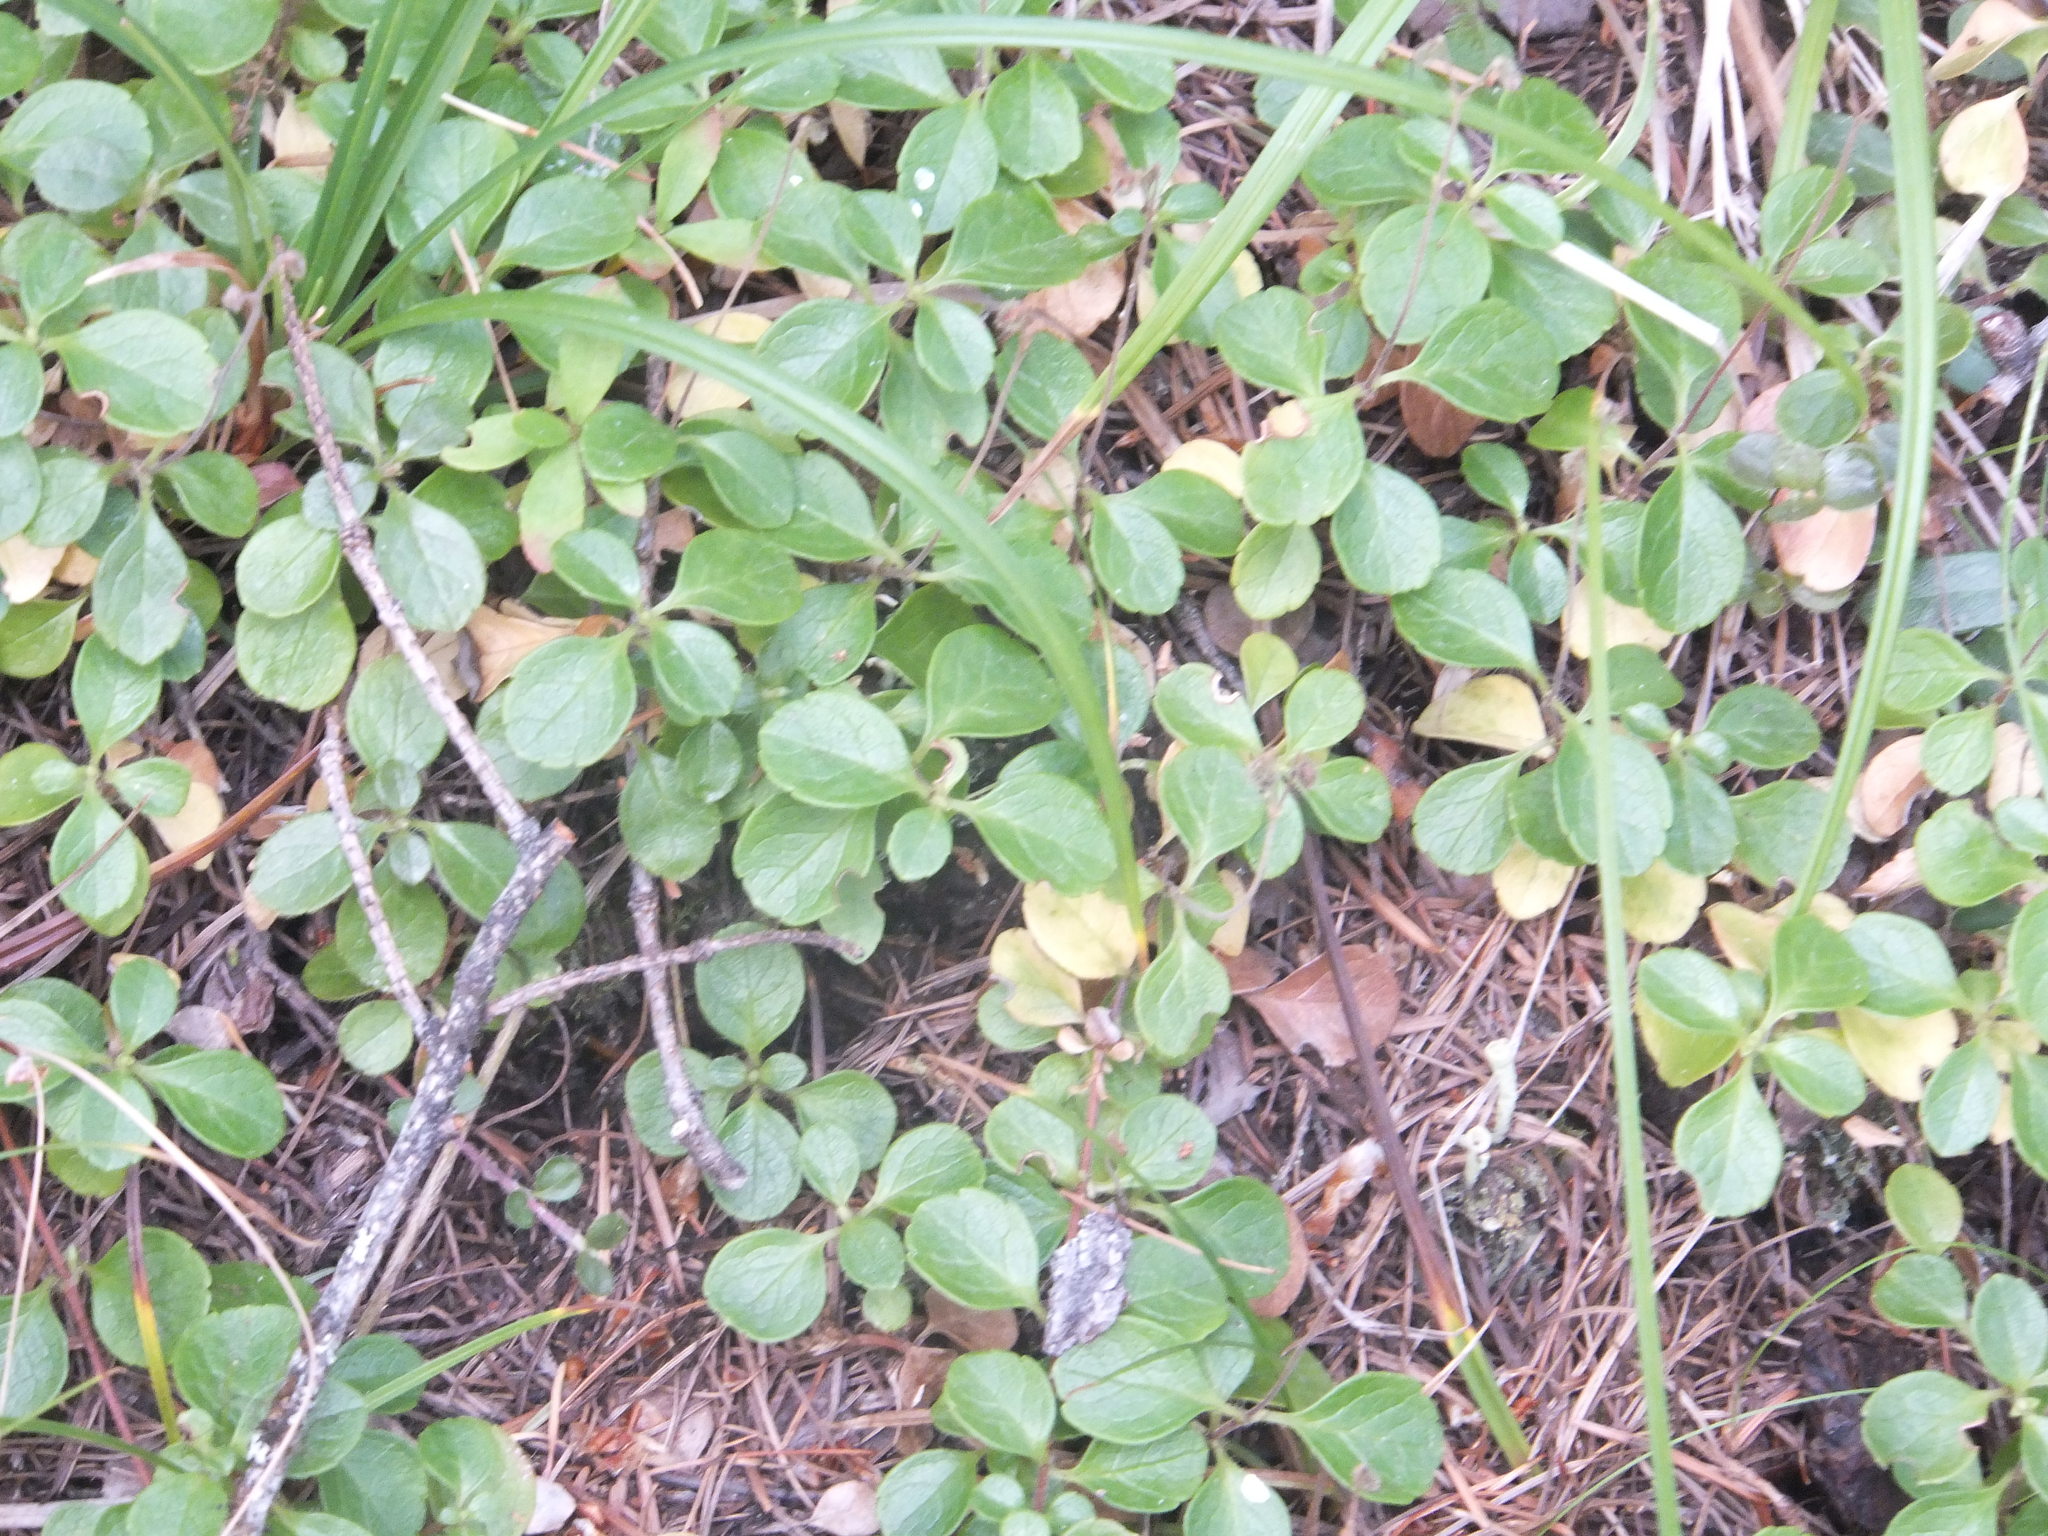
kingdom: Plantae
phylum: Tracheophyta
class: Magnoliopsida
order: Dipsacales
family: Caprifoliaceae
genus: Linnaea
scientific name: Linnaea borealis
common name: Twinflower
